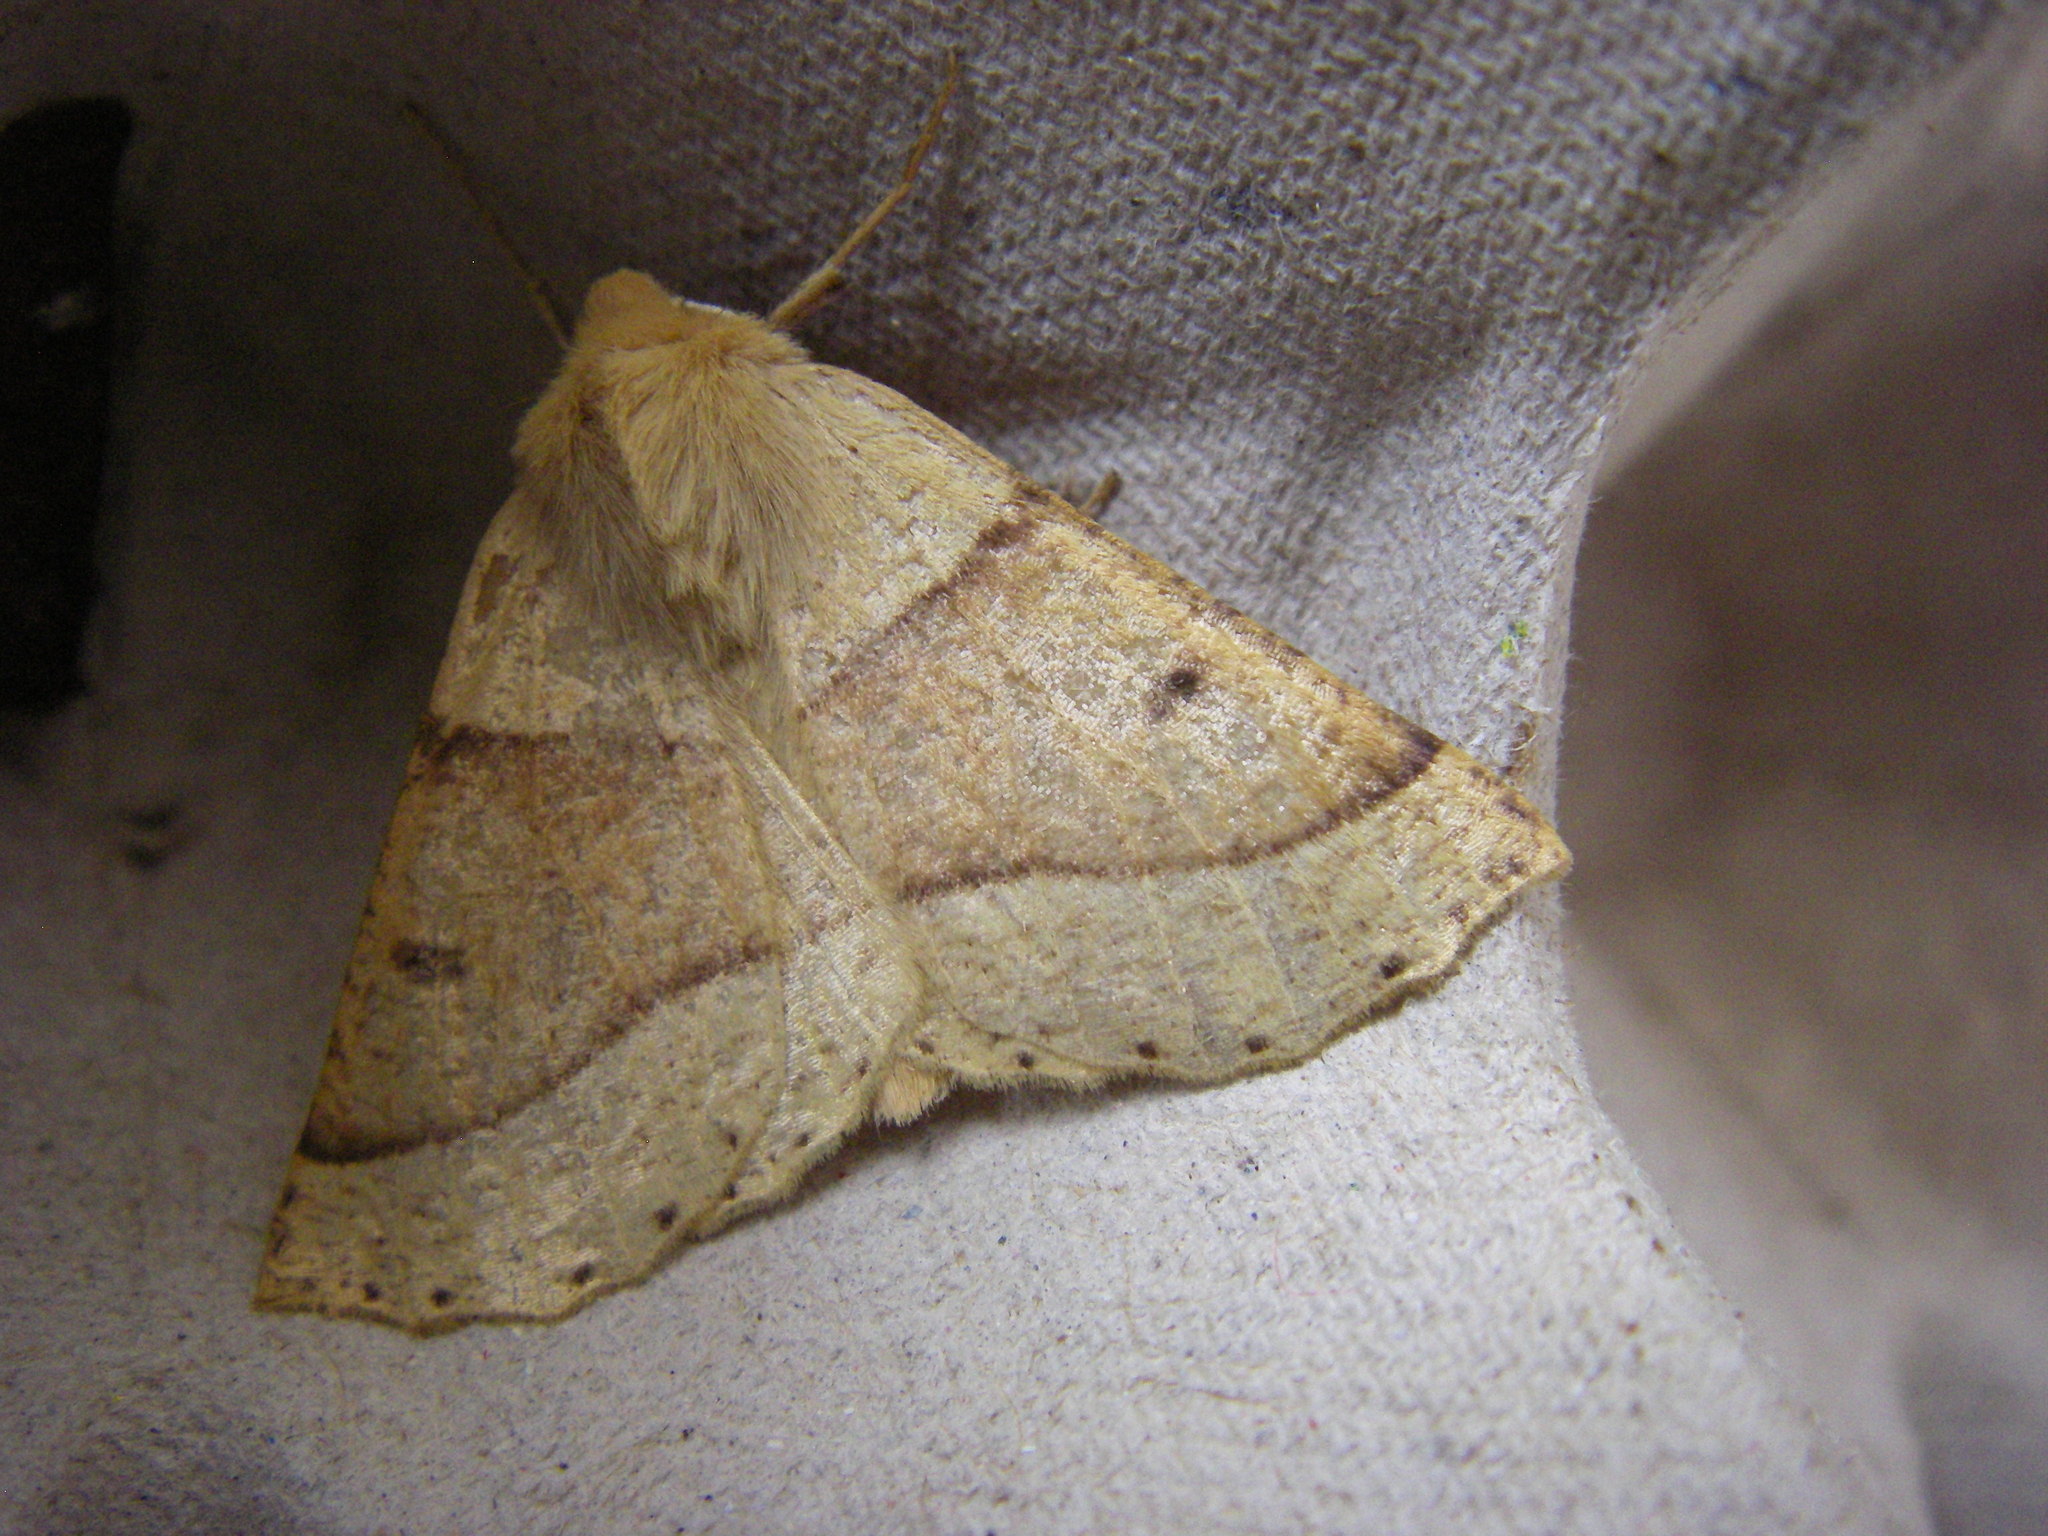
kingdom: Animalia
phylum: Arthropoda
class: Insecta
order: Lepidoptera
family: Geometridae
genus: Crocallis
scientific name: Crocallis elinguaria
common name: Scalloped oak
